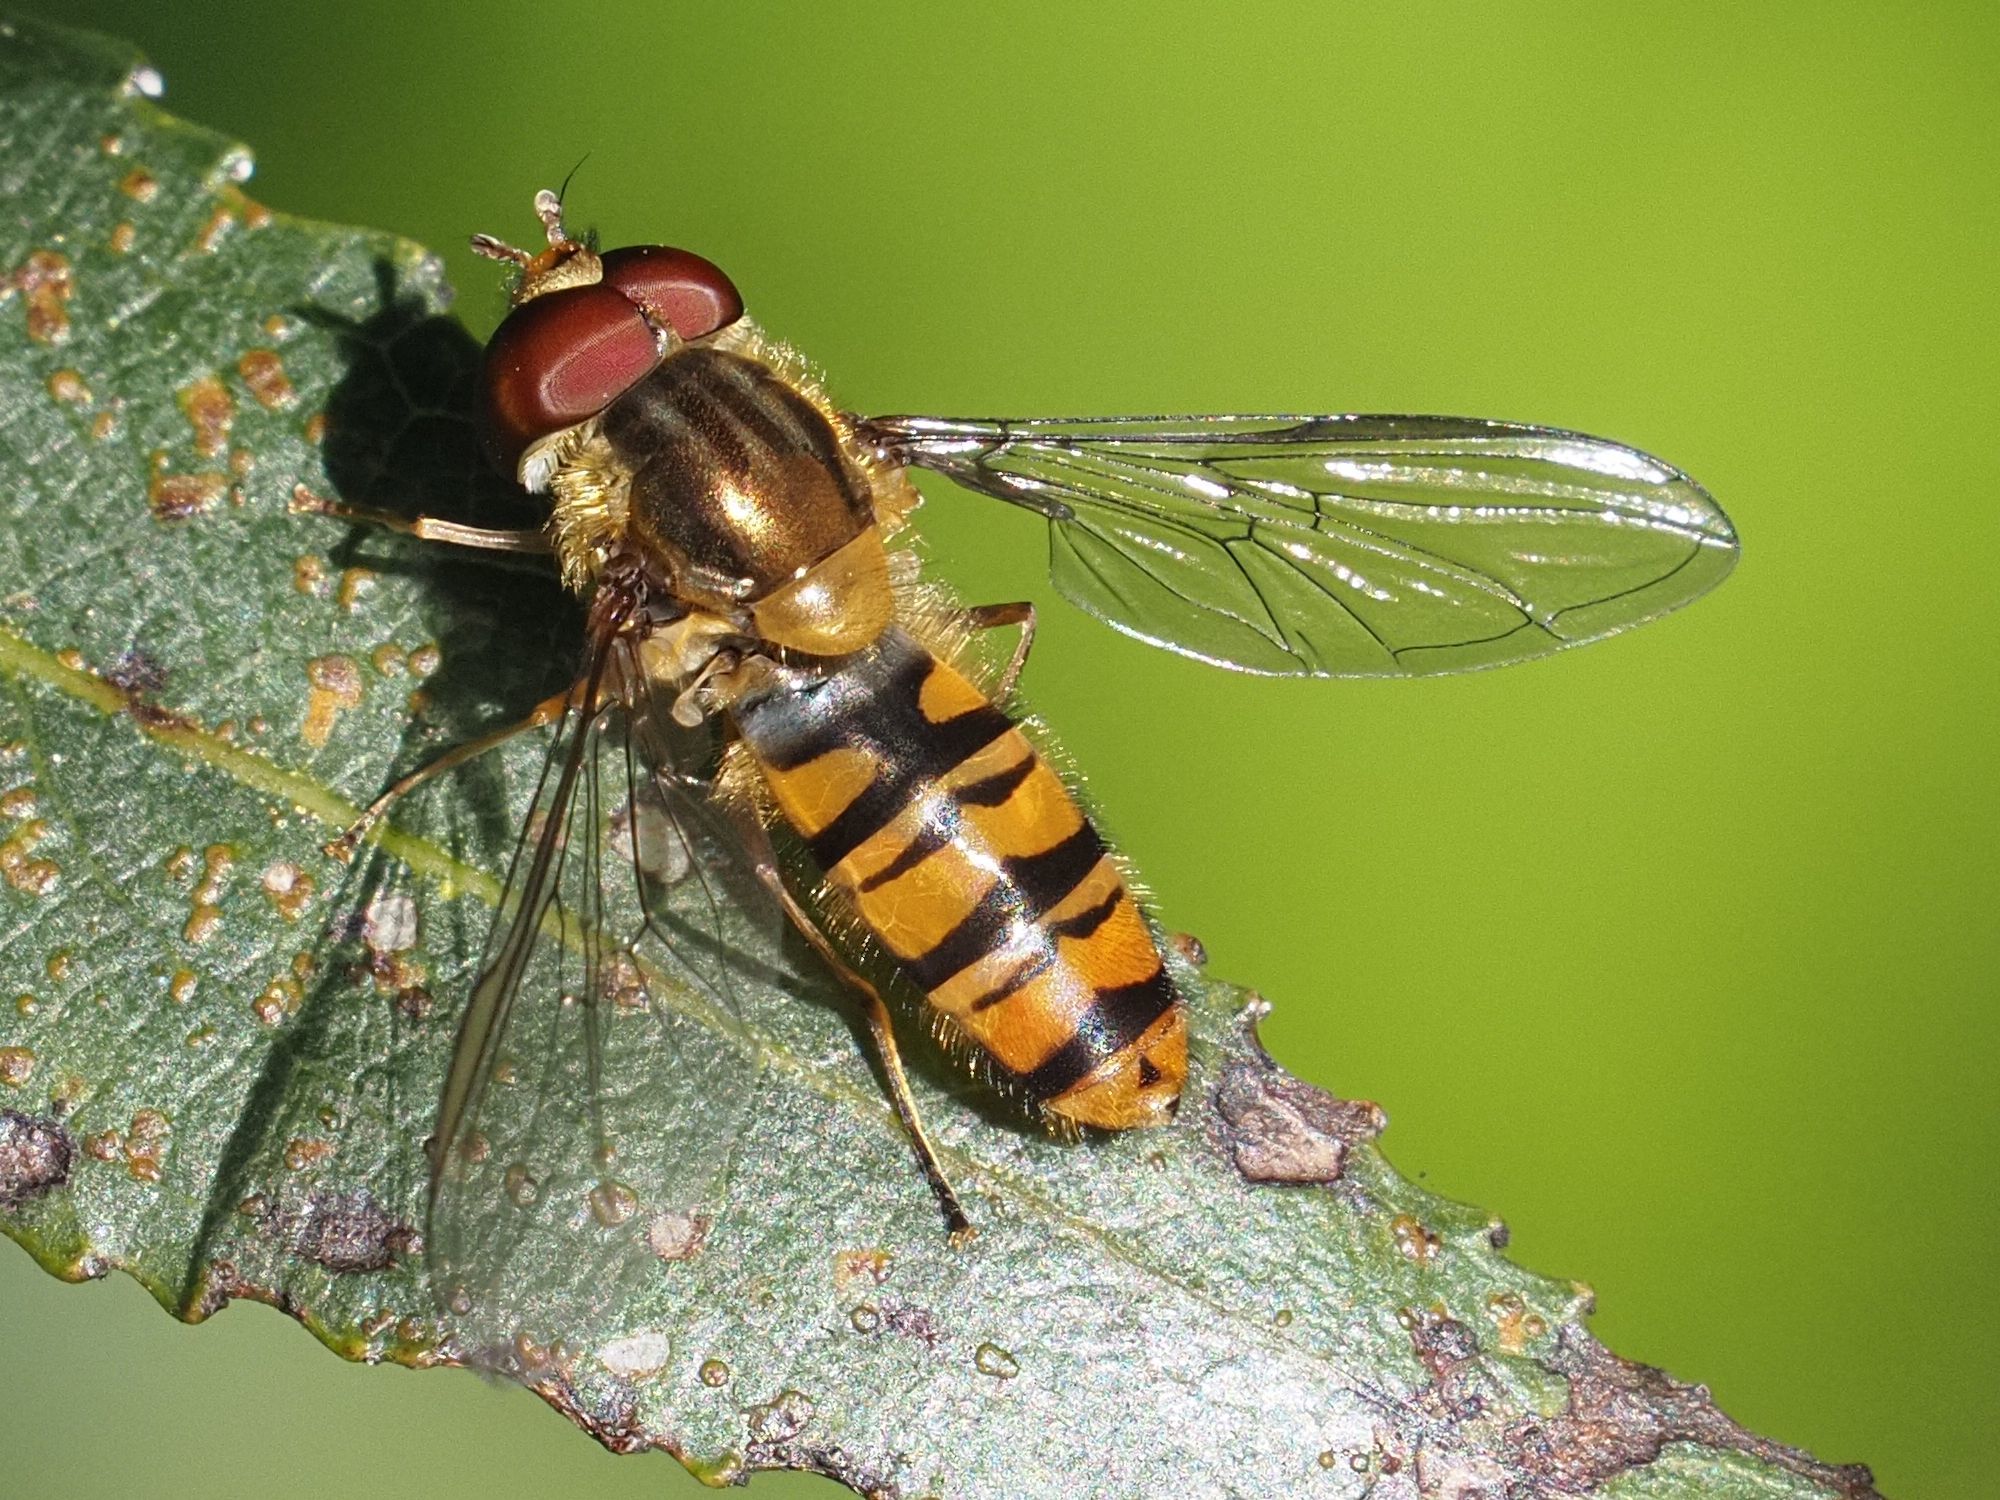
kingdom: Animalia
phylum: Arthropoda
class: Insecta
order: Diptera
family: Syrphidae
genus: Episyrphus
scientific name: Episyrphus balteatus
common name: Marmalade hoverfly
